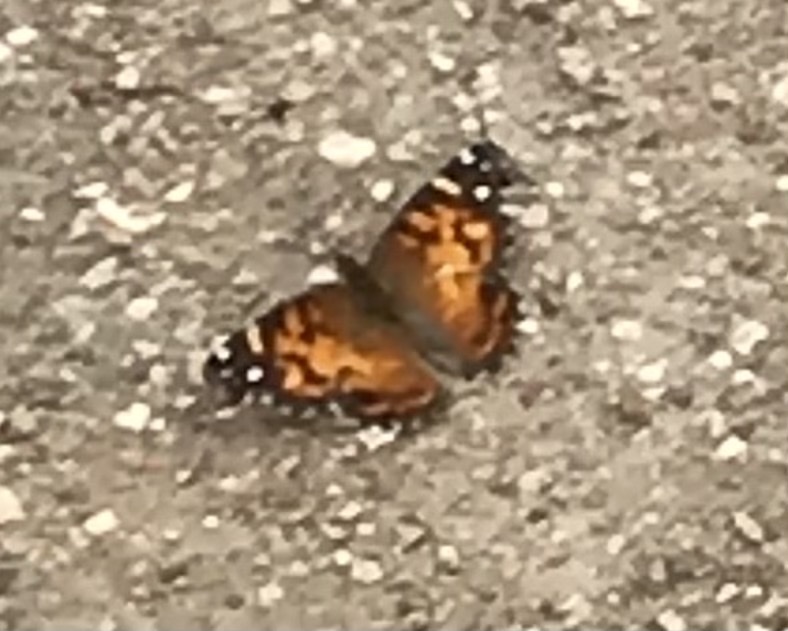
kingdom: Animalia
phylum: Arthropoda
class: Insecta
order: Lepidoptera
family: Nymphalidae
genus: Vanessa
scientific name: Vanessa virginiensis
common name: American lady
